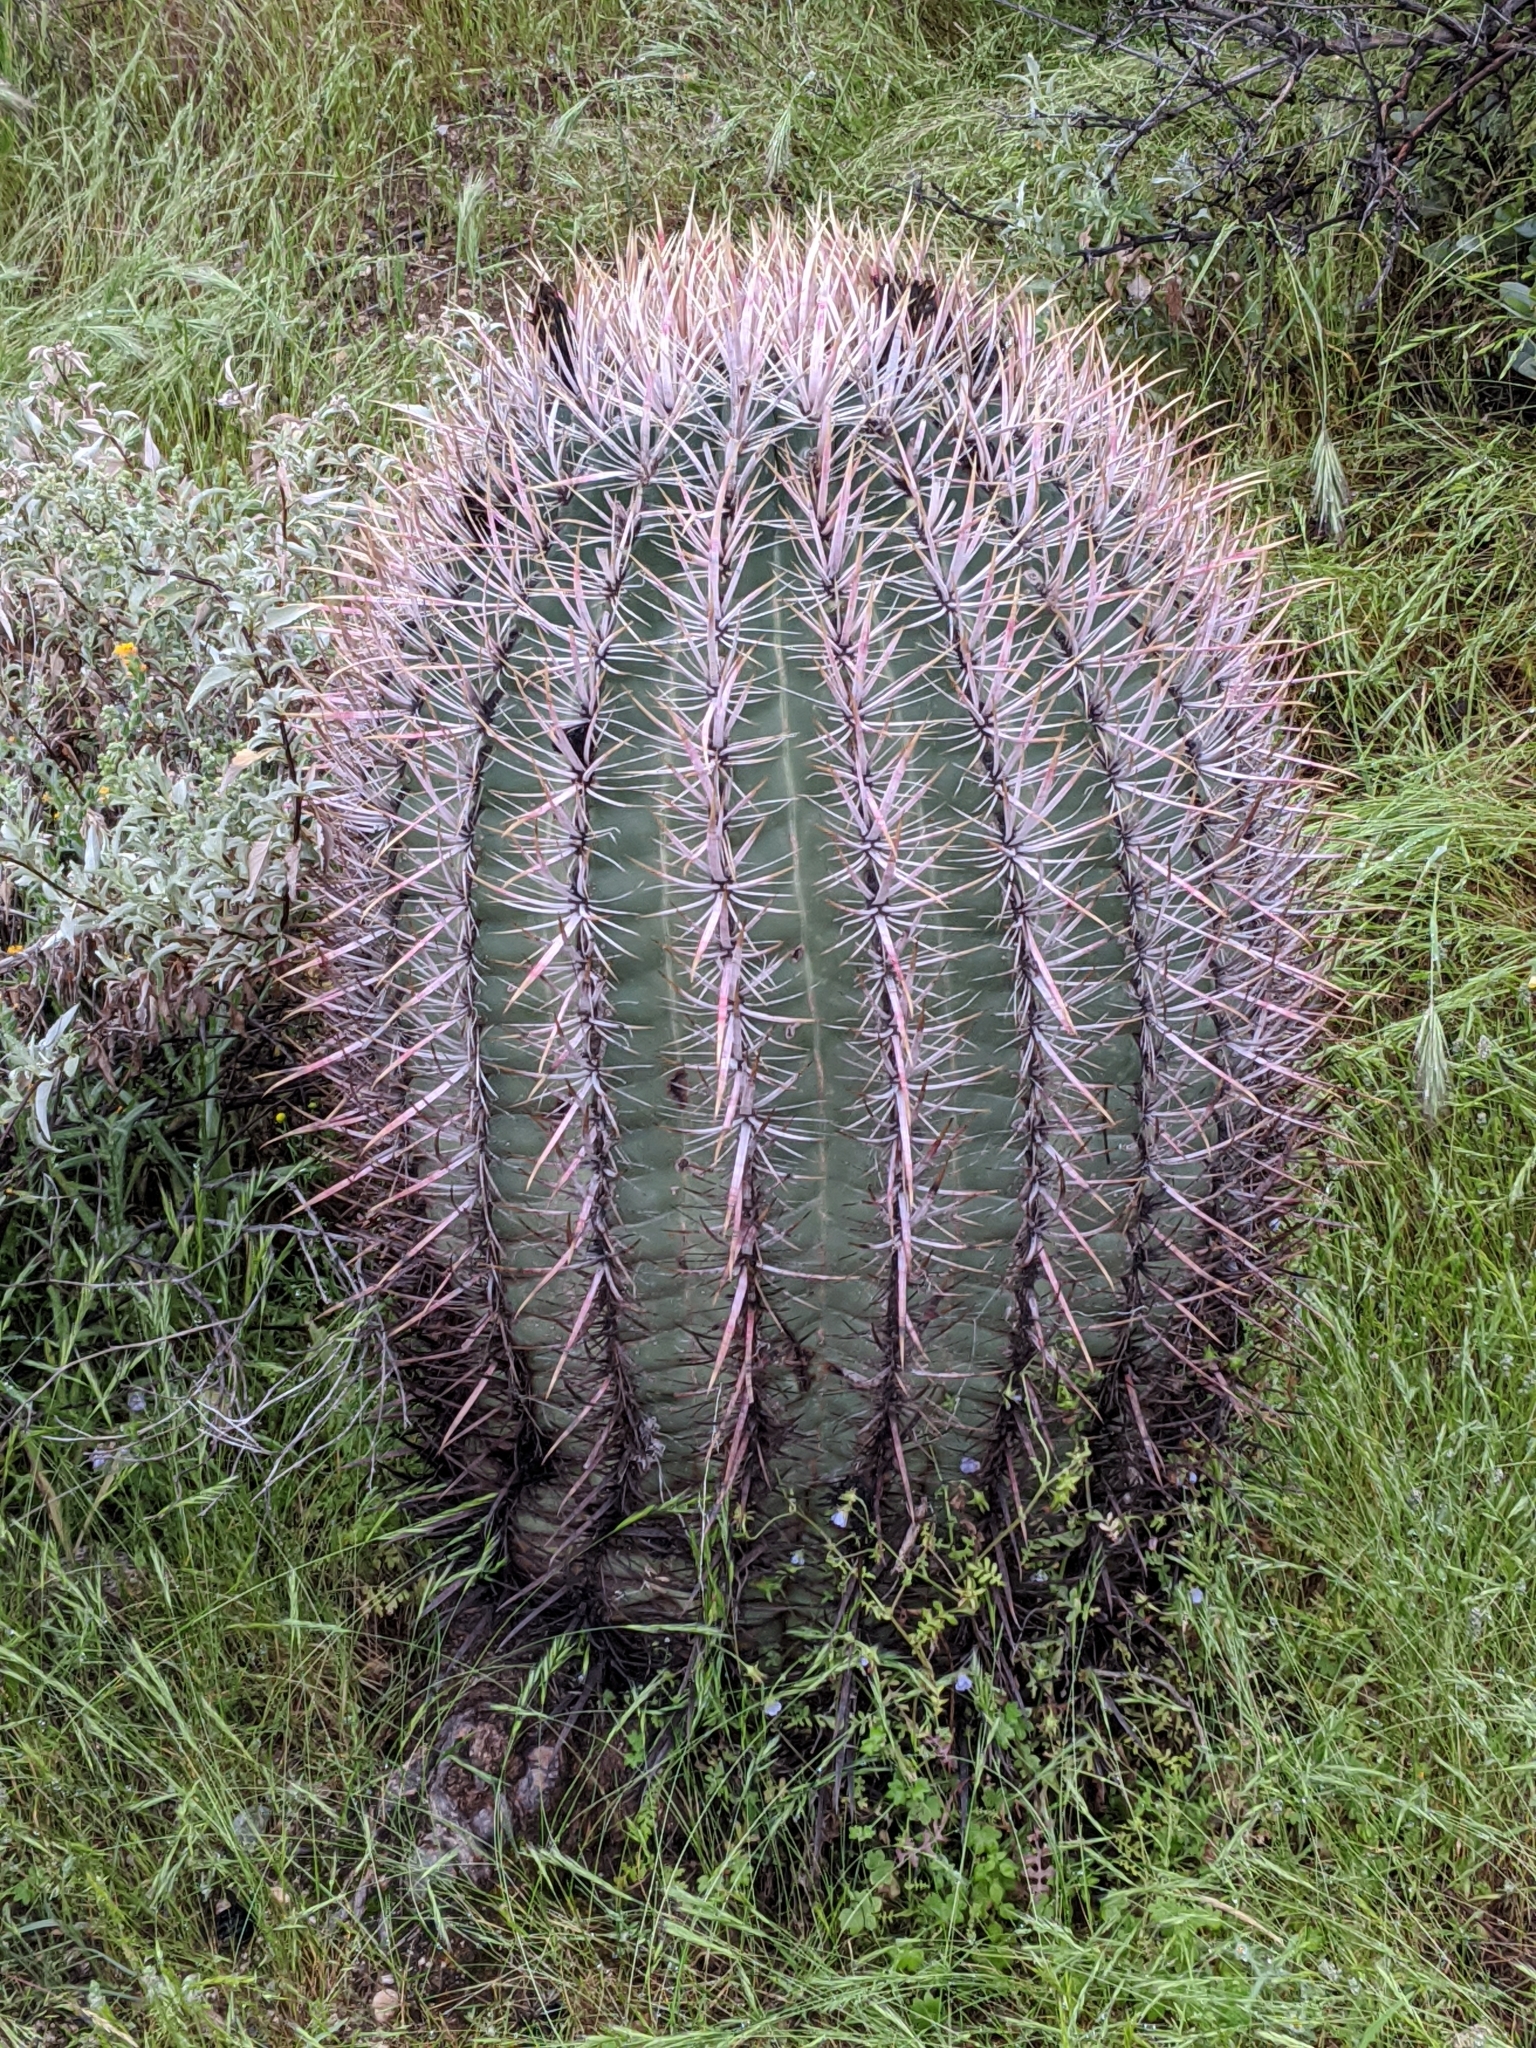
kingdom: Plantae
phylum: Tracheophyta
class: Magnoliopsida
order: Caryophyllales
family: Cactaceae
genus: Ferocactus
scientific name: Ferocactus cylindraceus
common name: California barrel cactus
